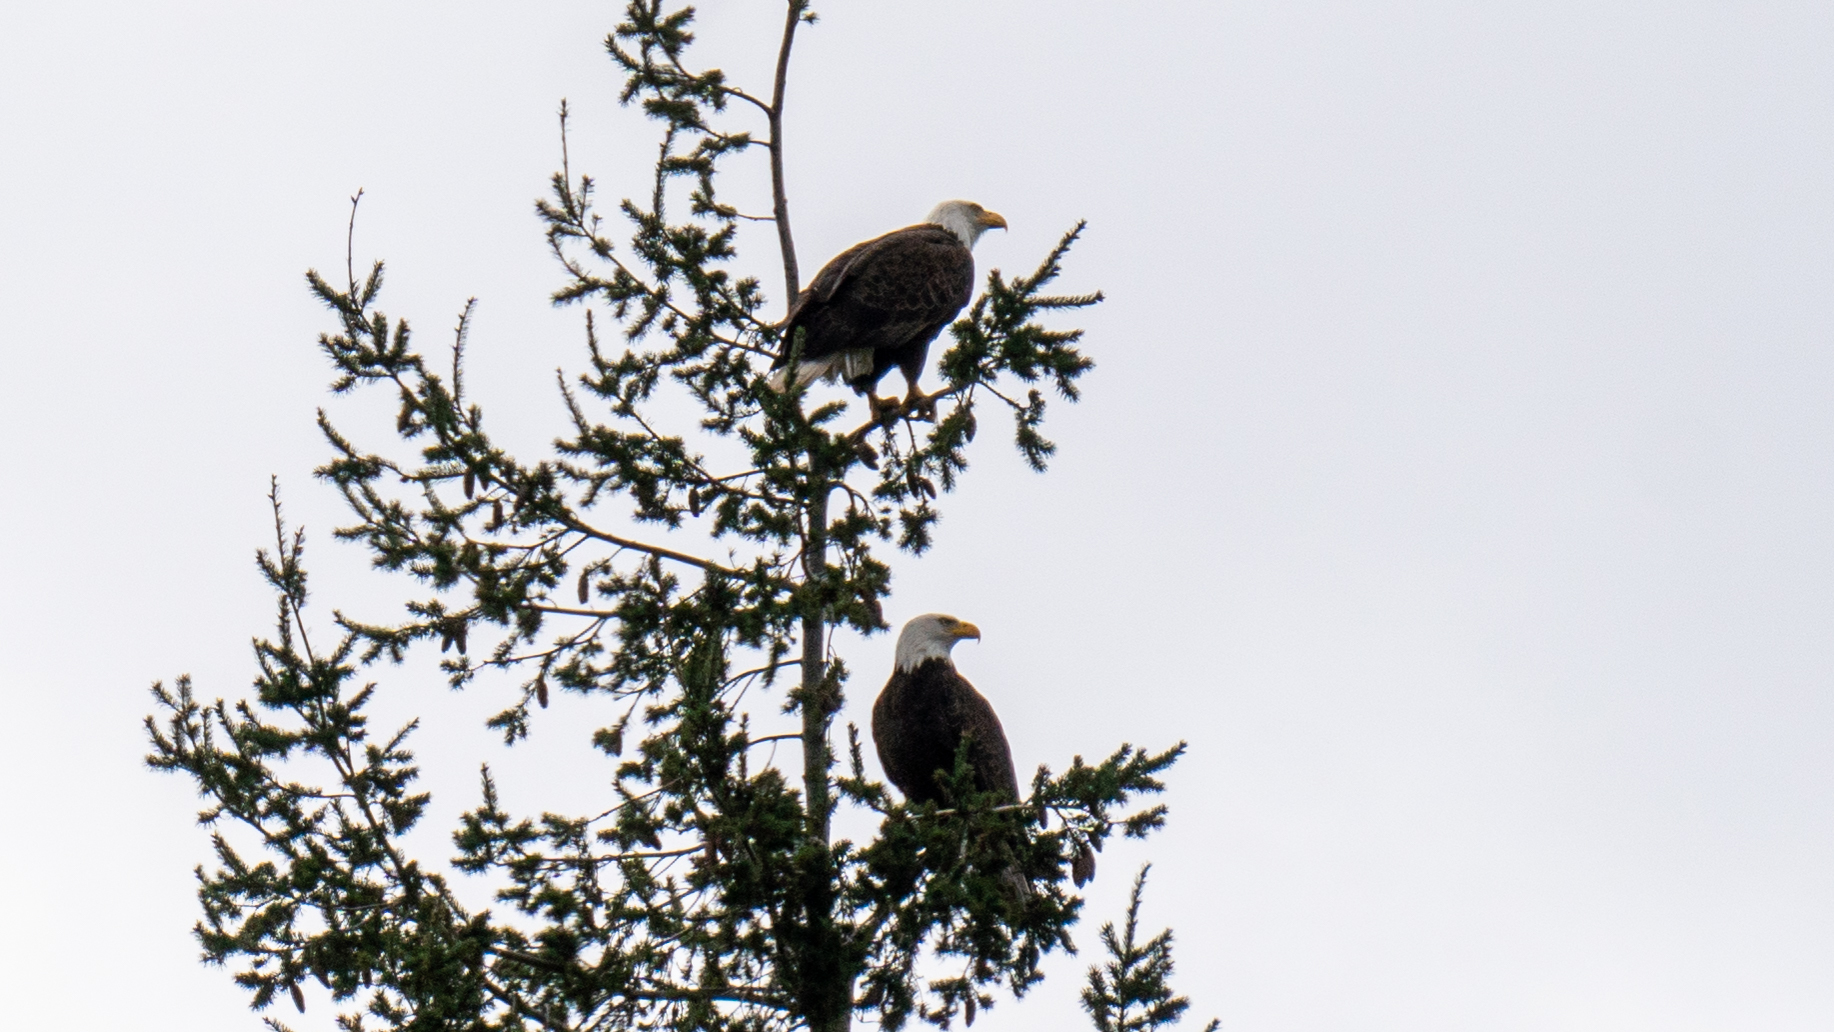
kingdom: Animalia
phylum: Chordata
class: Aves
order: Accipitriformes
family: Accipitridae
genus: Haliaeetus
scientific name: Haliaeetus leucocephalus
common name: Bald eagle
